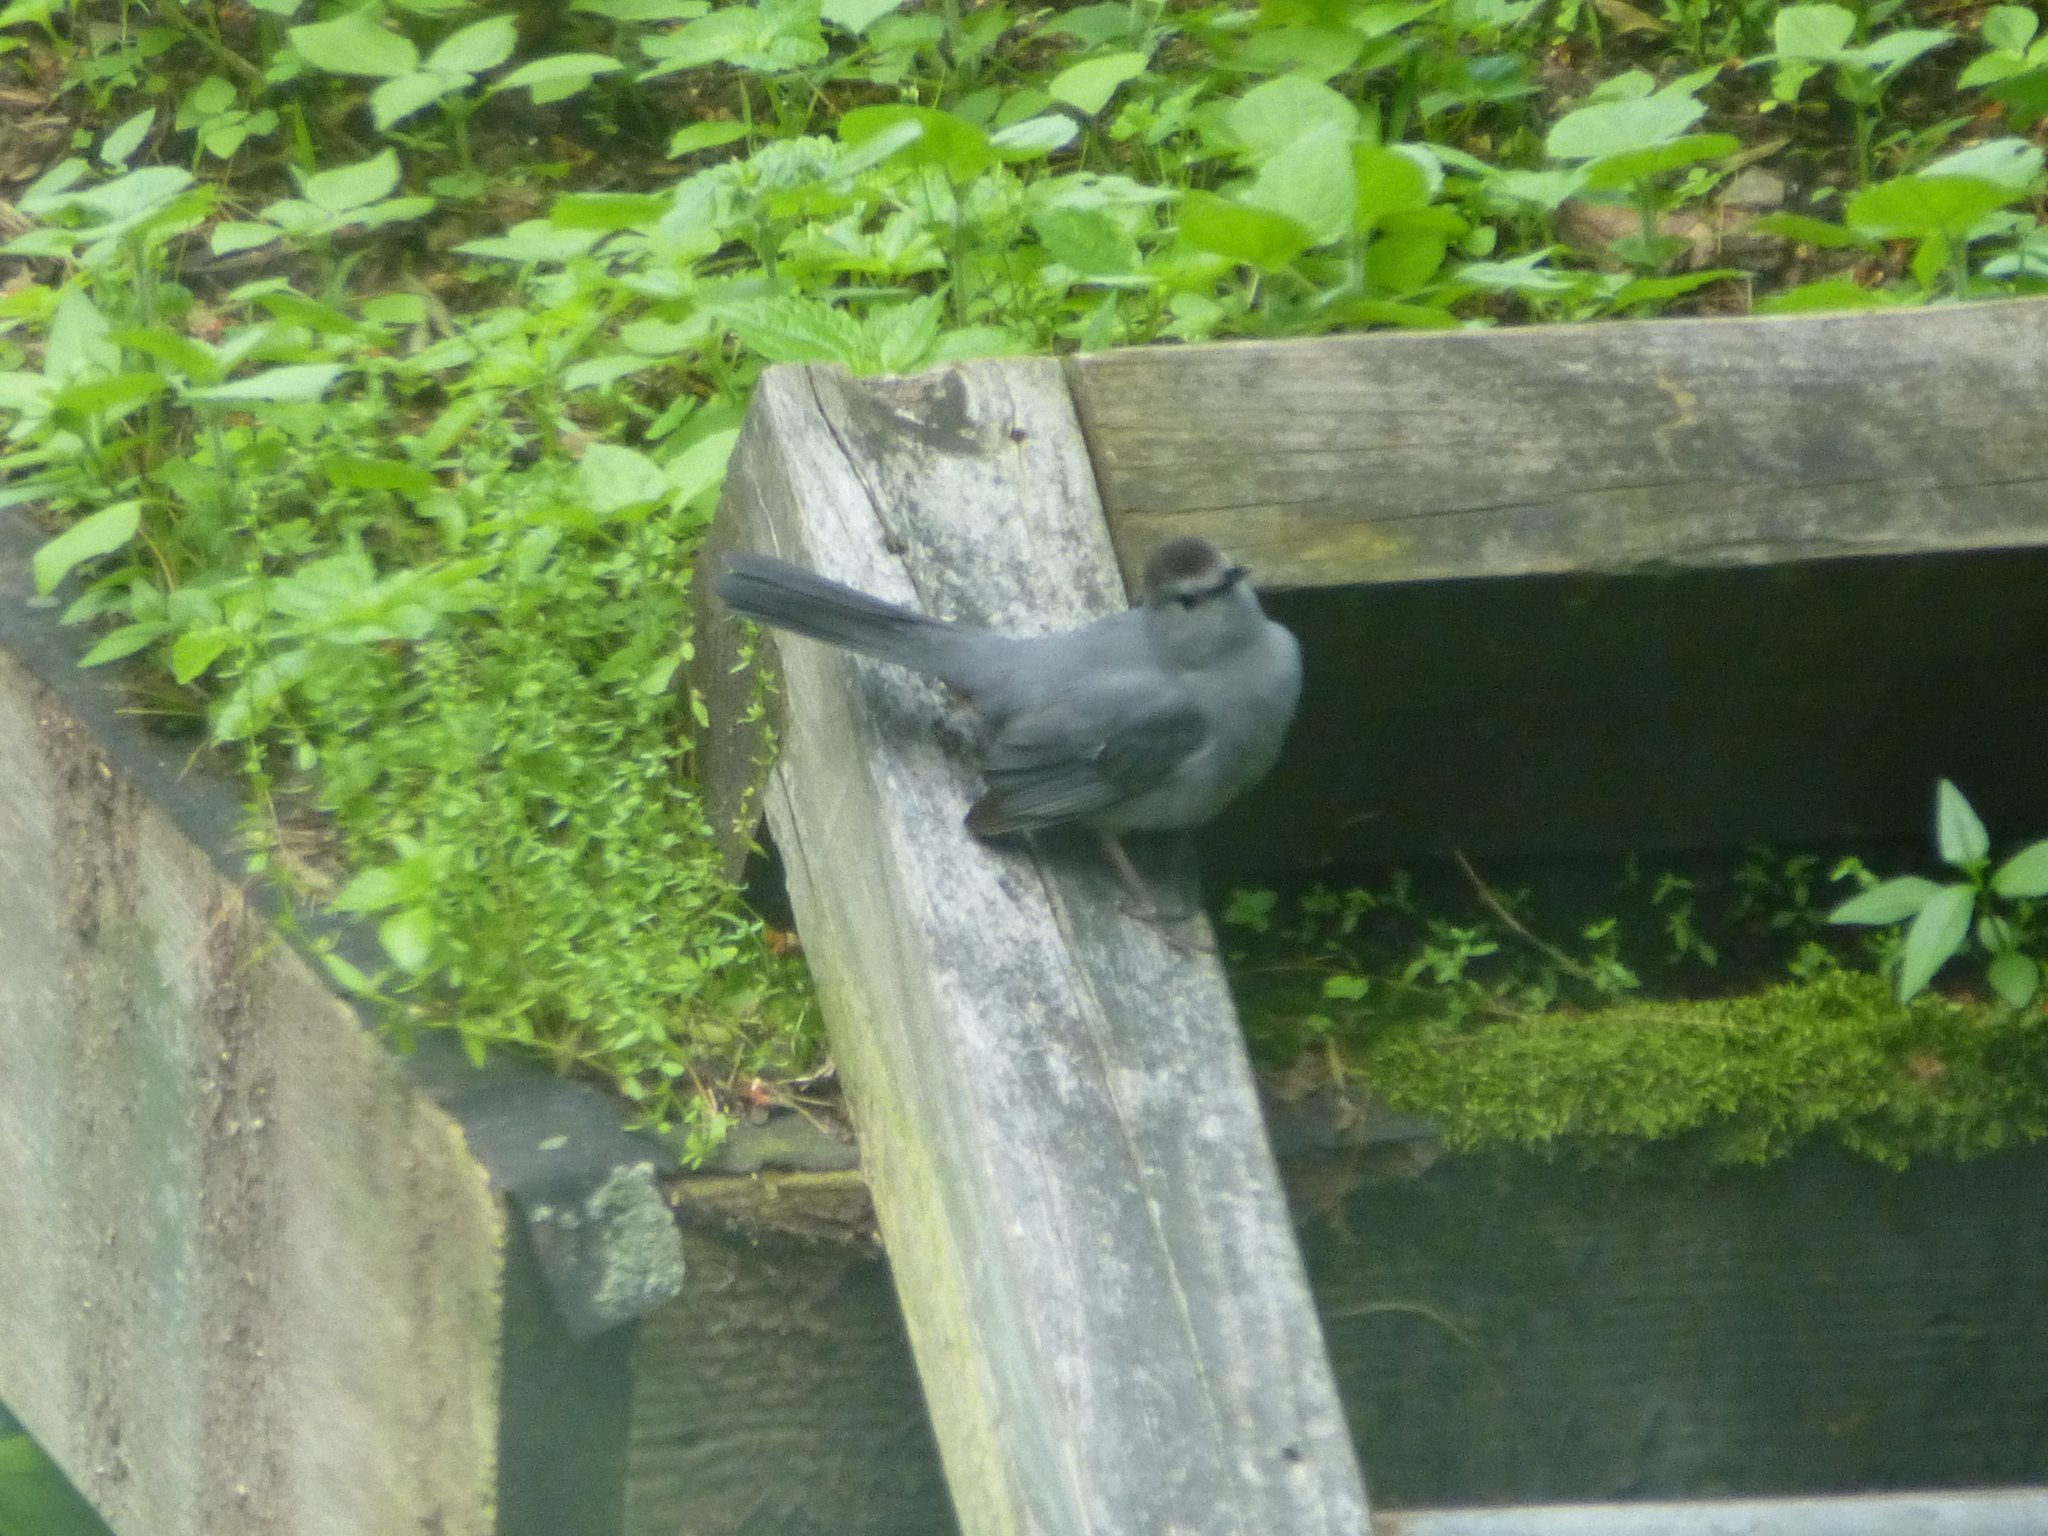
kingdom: Animalia
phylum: Chordata
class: Aves
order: Passeriformes
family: Mimidae
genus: Dumetella
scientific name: Dumetella carolinensis
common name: Gray catbird
